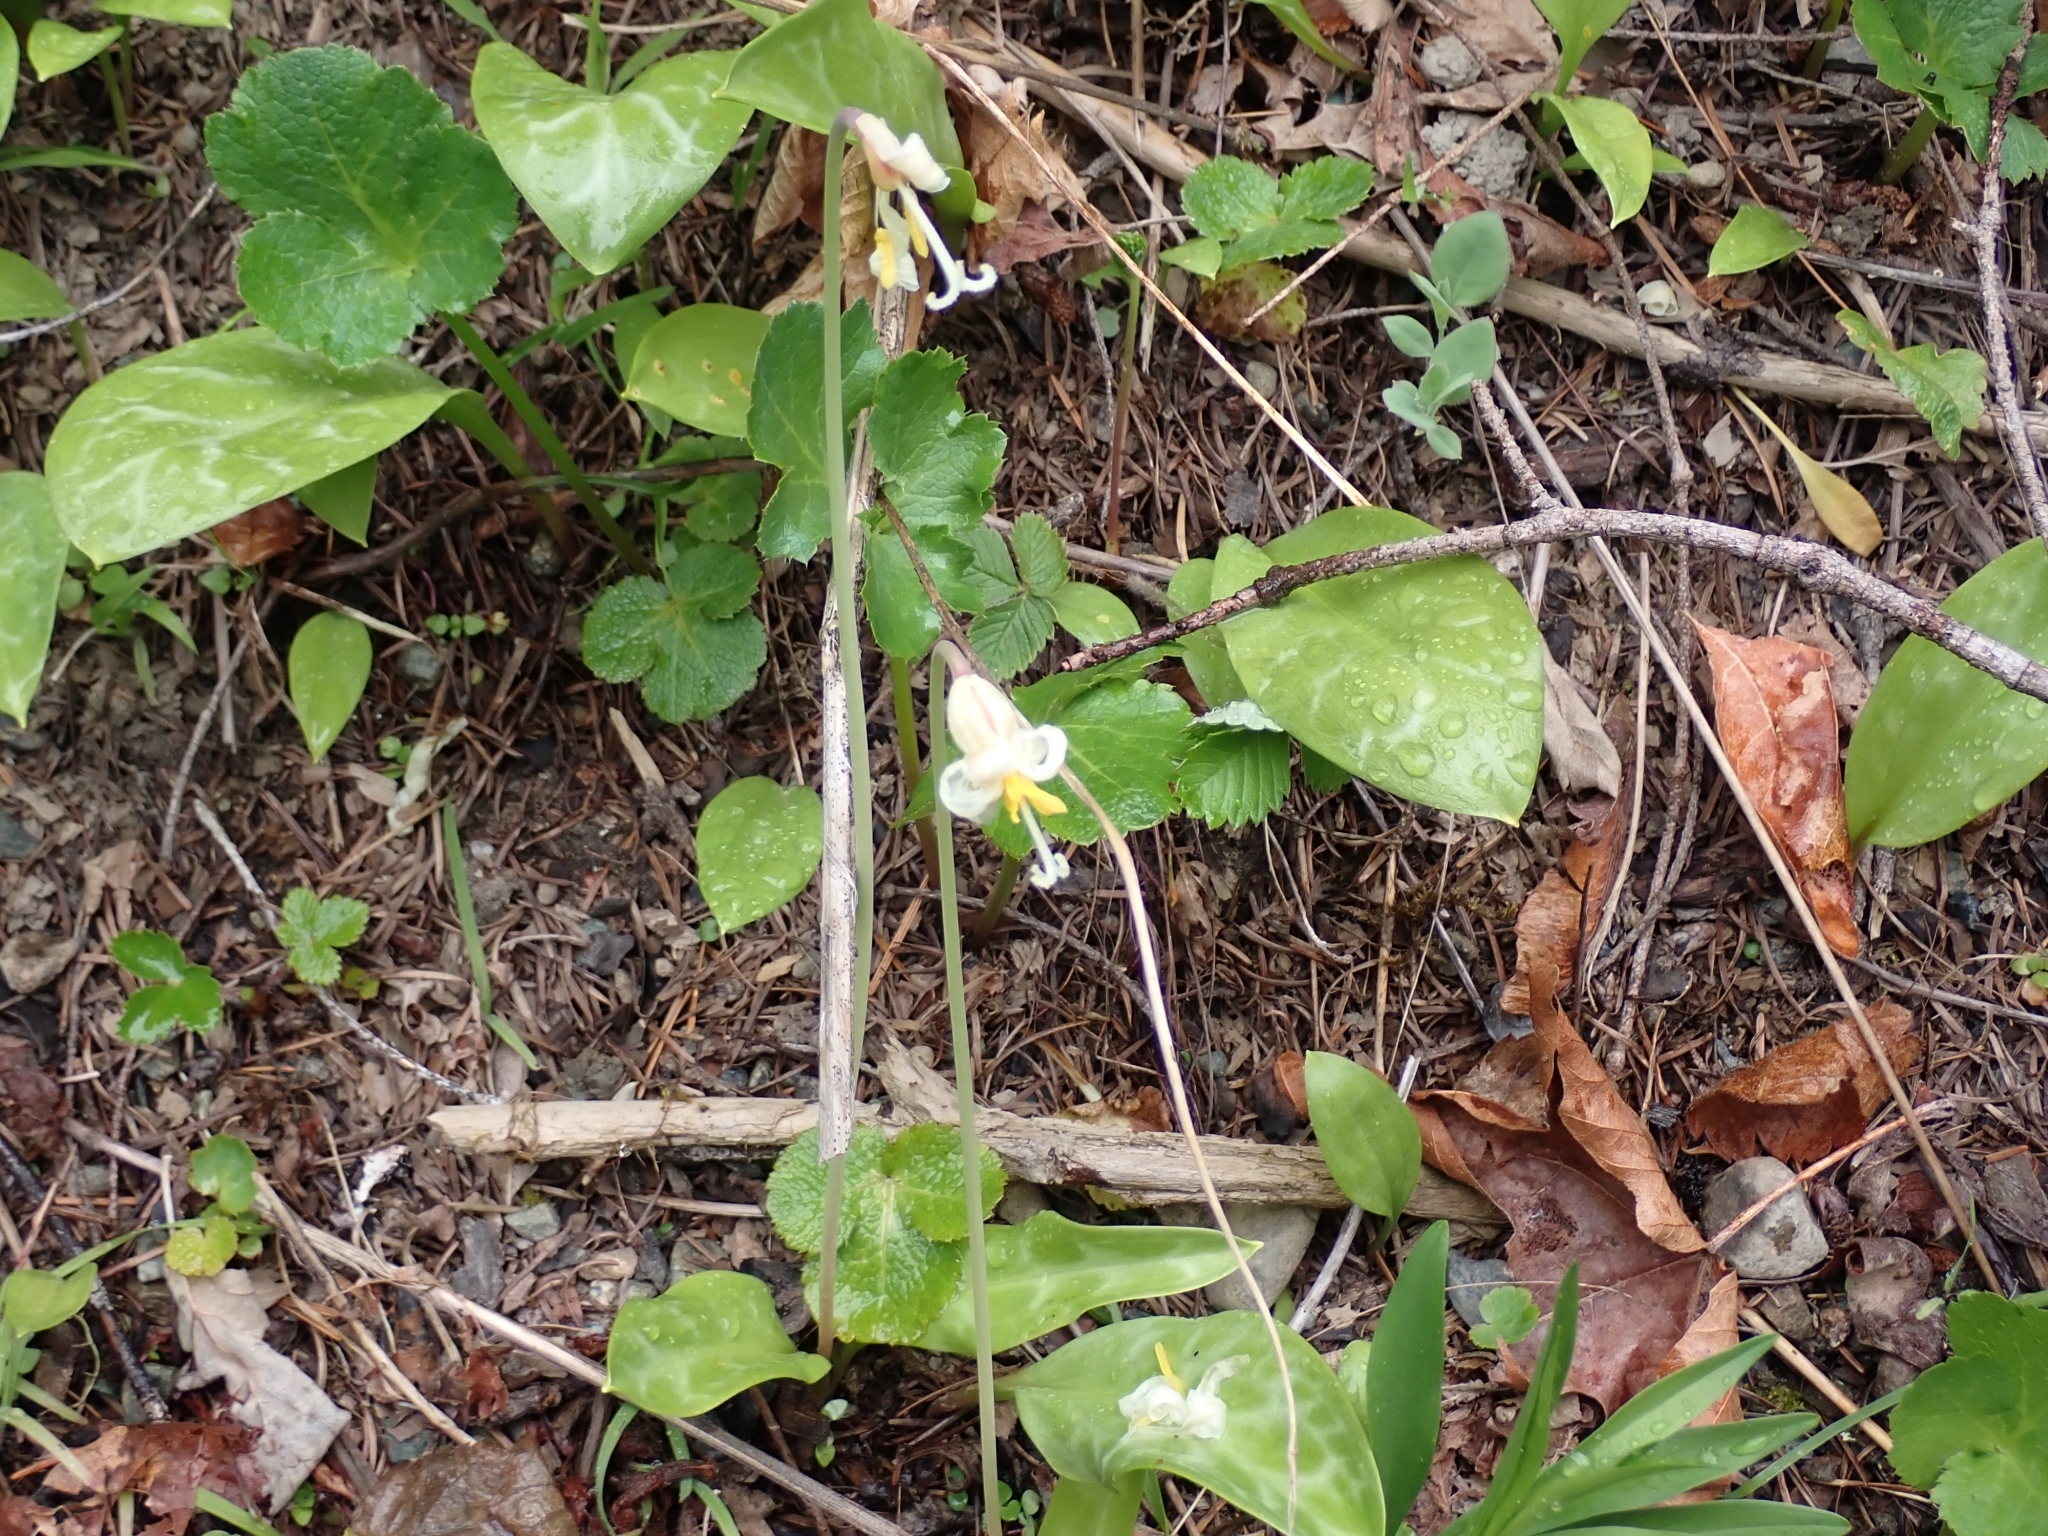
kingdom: Plantae
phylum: Tracheophyta
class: Liliopsida
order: Liliales
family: Liliaceae
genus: Erythronium
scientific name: Erythronium oregonum
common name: Giant adder's-tongue
